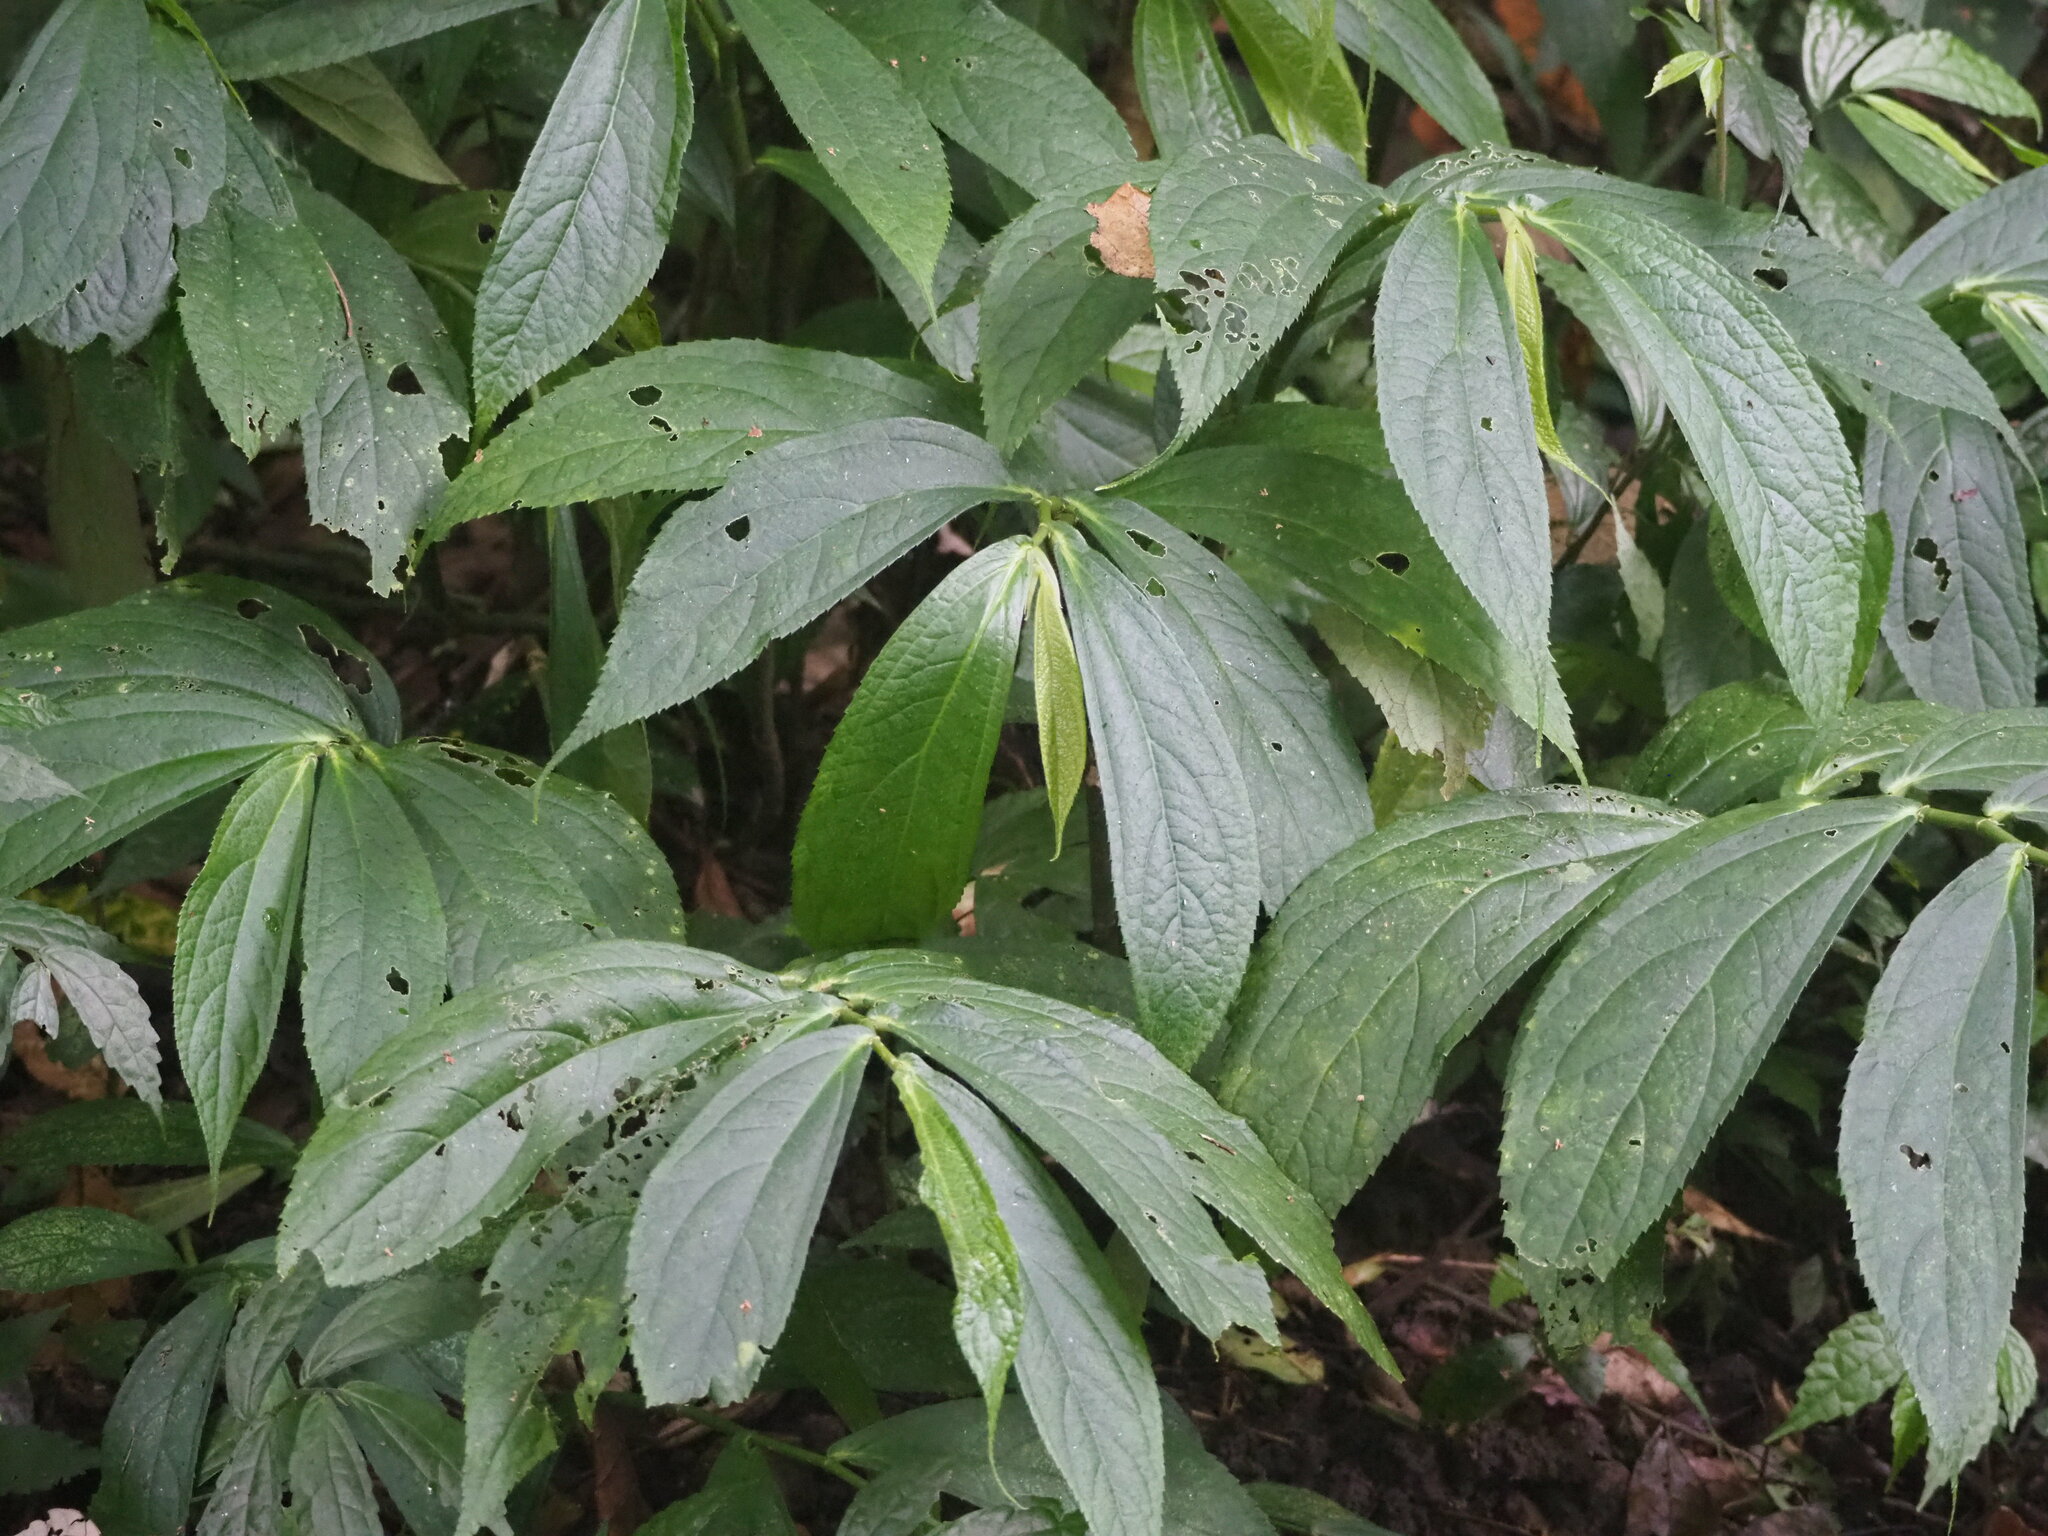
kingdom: Plantae
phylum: Tracheophyta
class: Magnoliopsida
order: Rosales
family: Urticaceae
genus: Elatostema
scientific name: Elatostema platyphyllum
